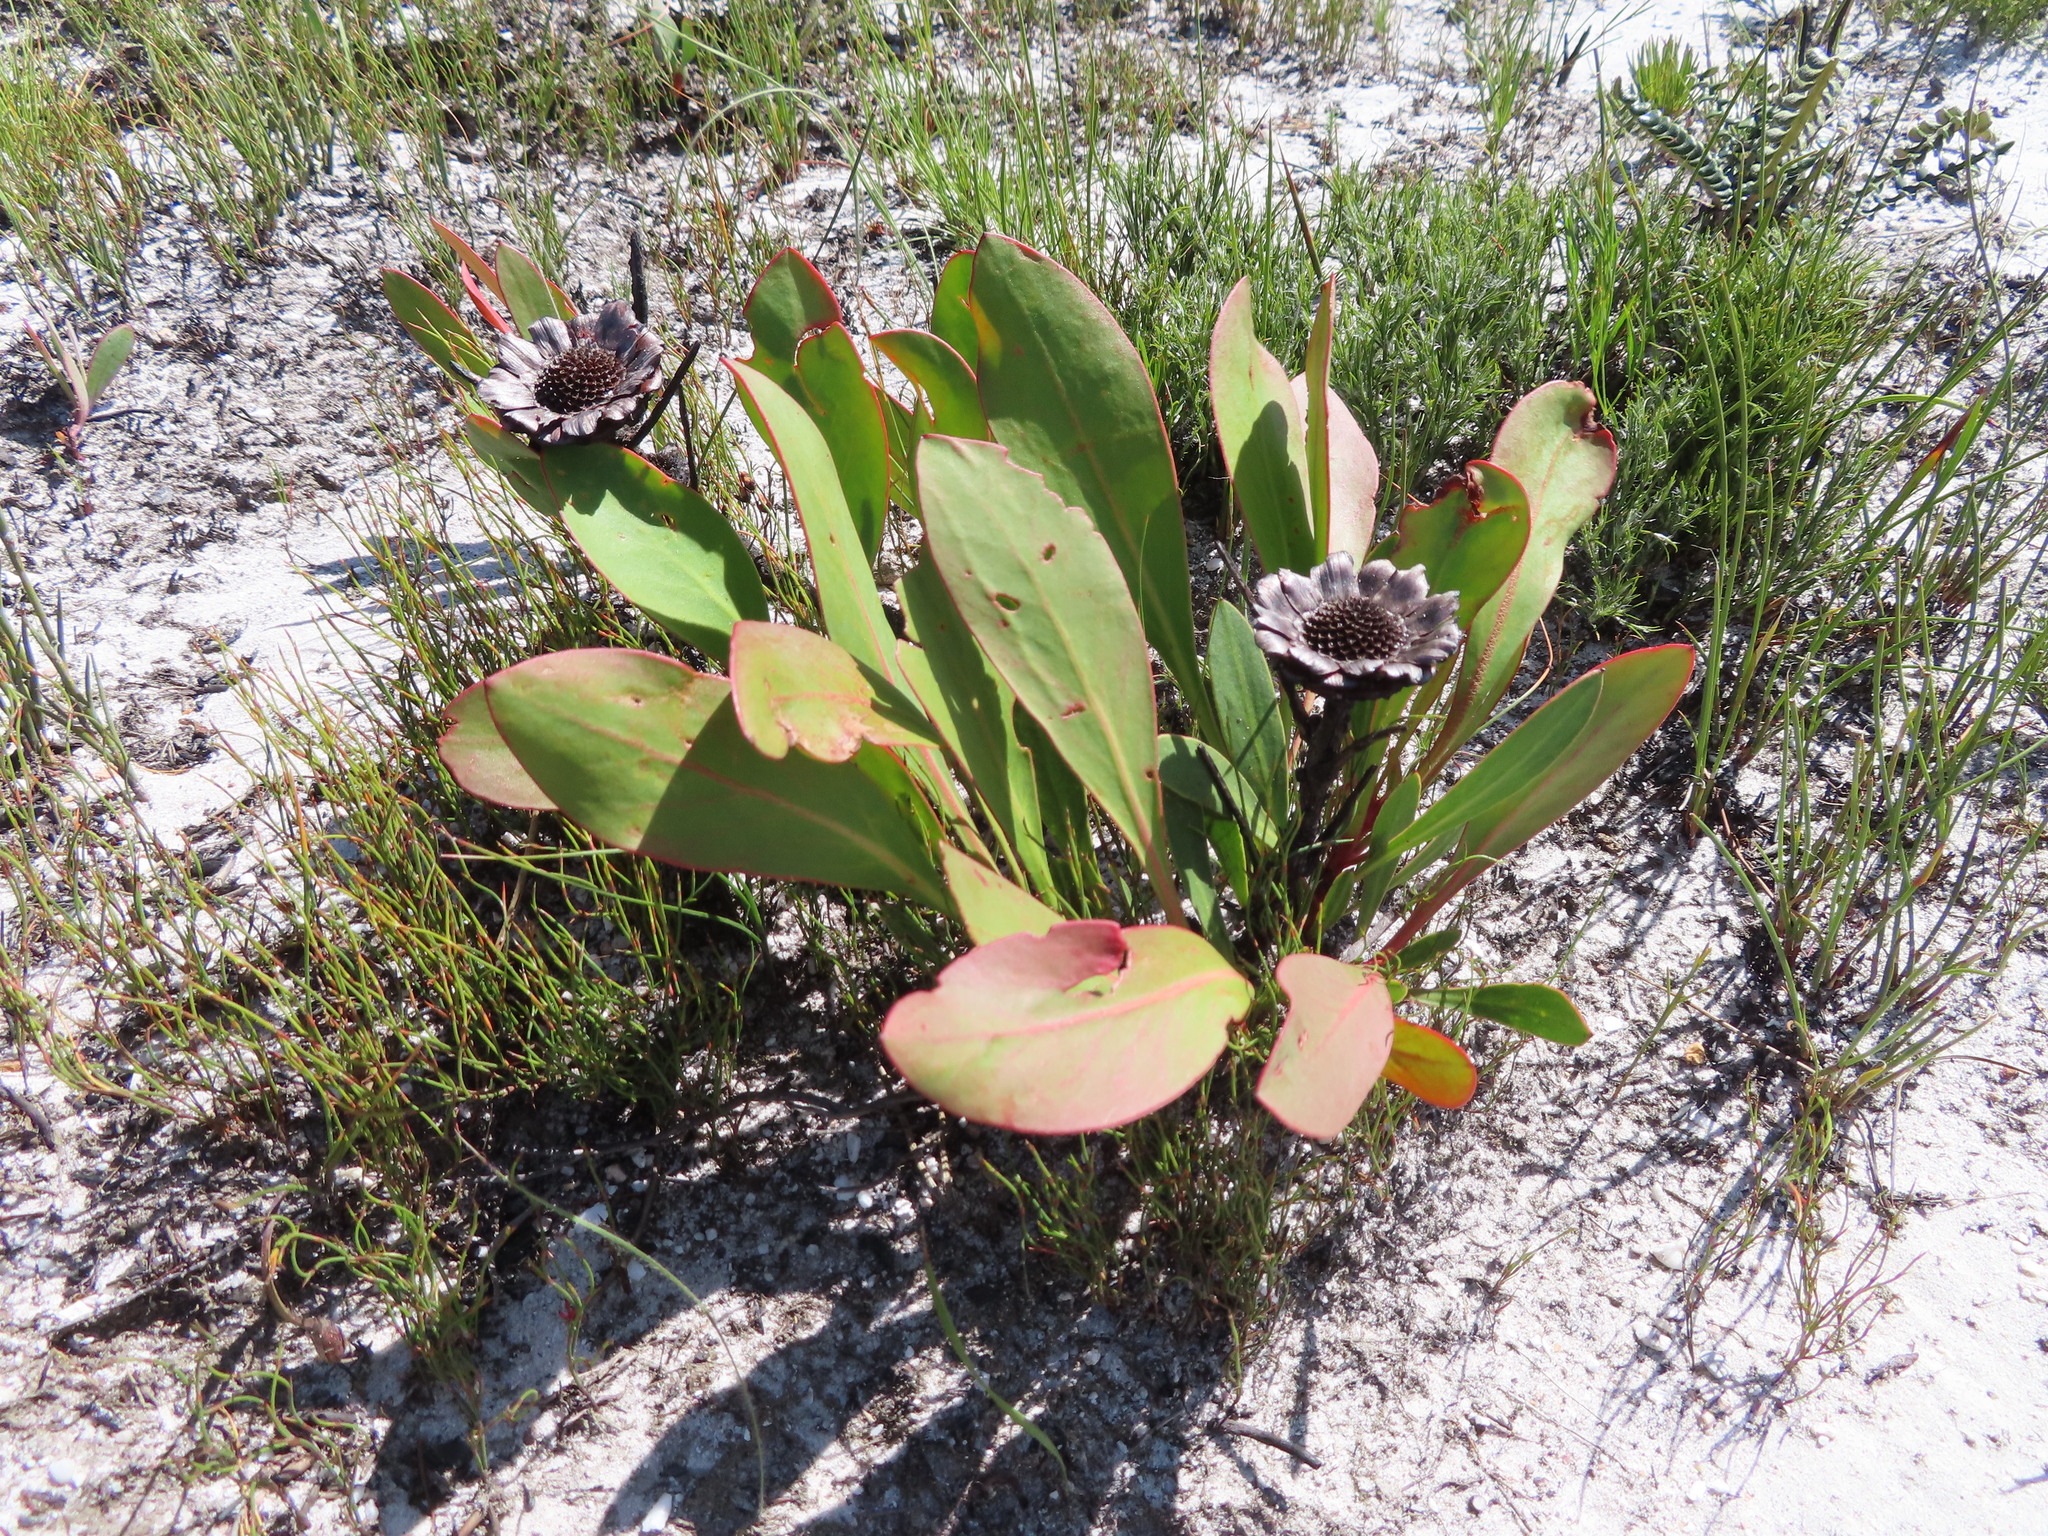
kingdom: Plantae
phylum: Tracheophyta
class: Magnoliopsida
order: Proteales
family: Proteaceae
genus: Protea
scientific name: Protea acaulos
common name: Common ground sugarbush
